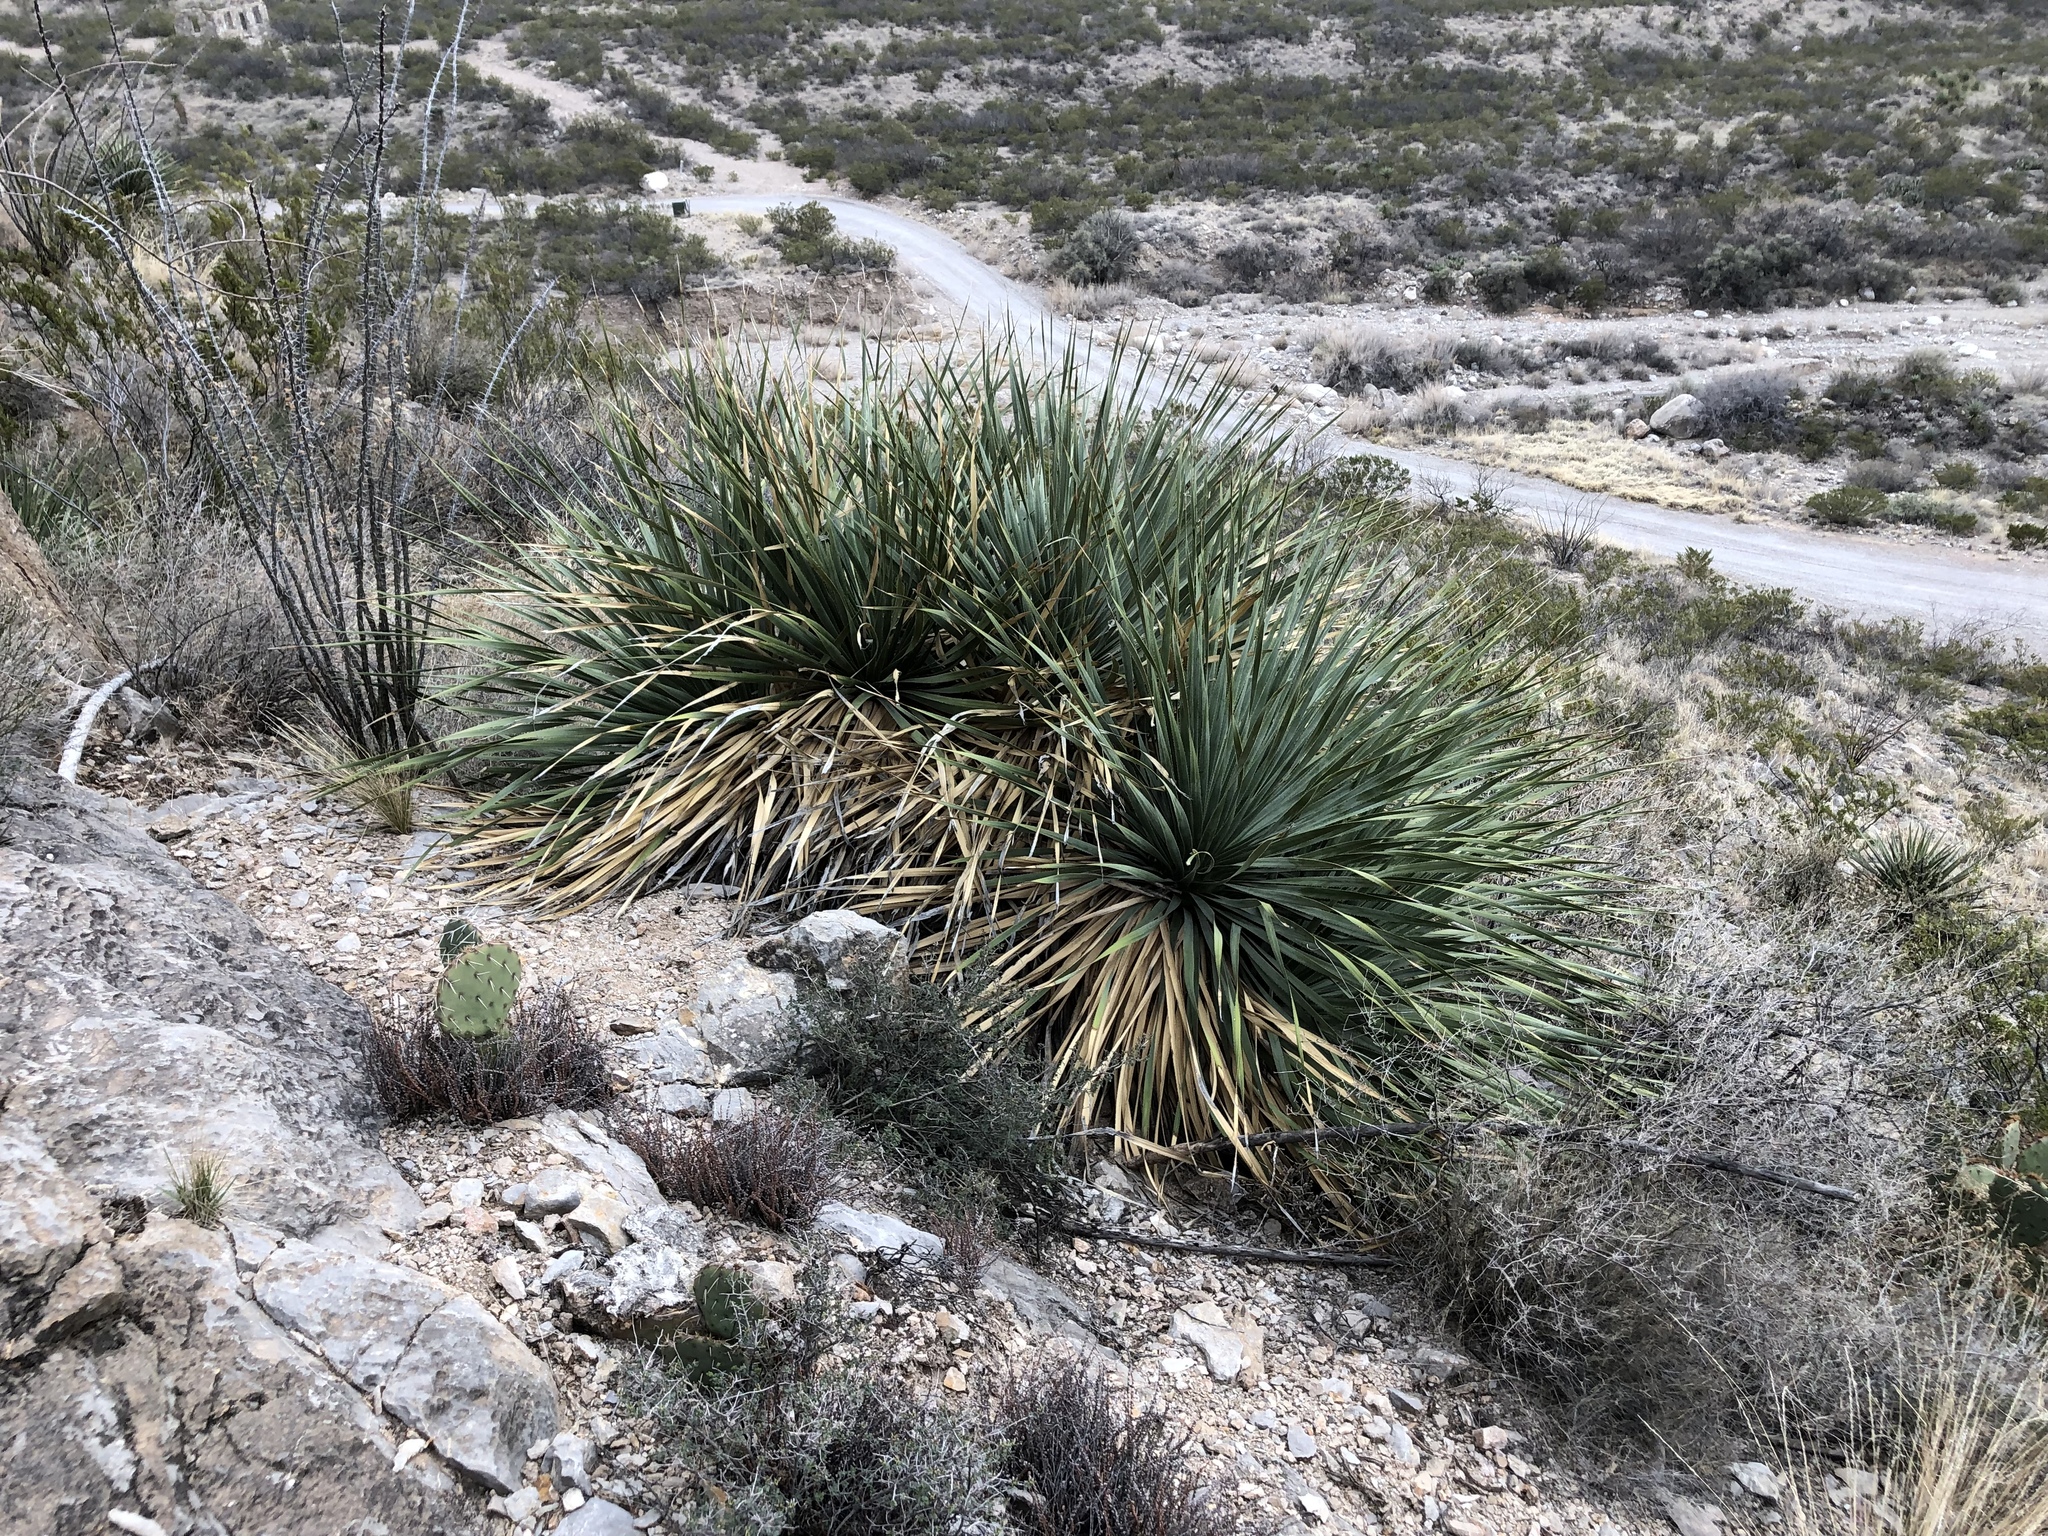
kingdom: Plantae
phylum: Tracheophyta
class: Liliopsida
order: Asparagales
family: Asparagaceae
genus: Dasylirion
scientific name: Dasylirion wheeleri
